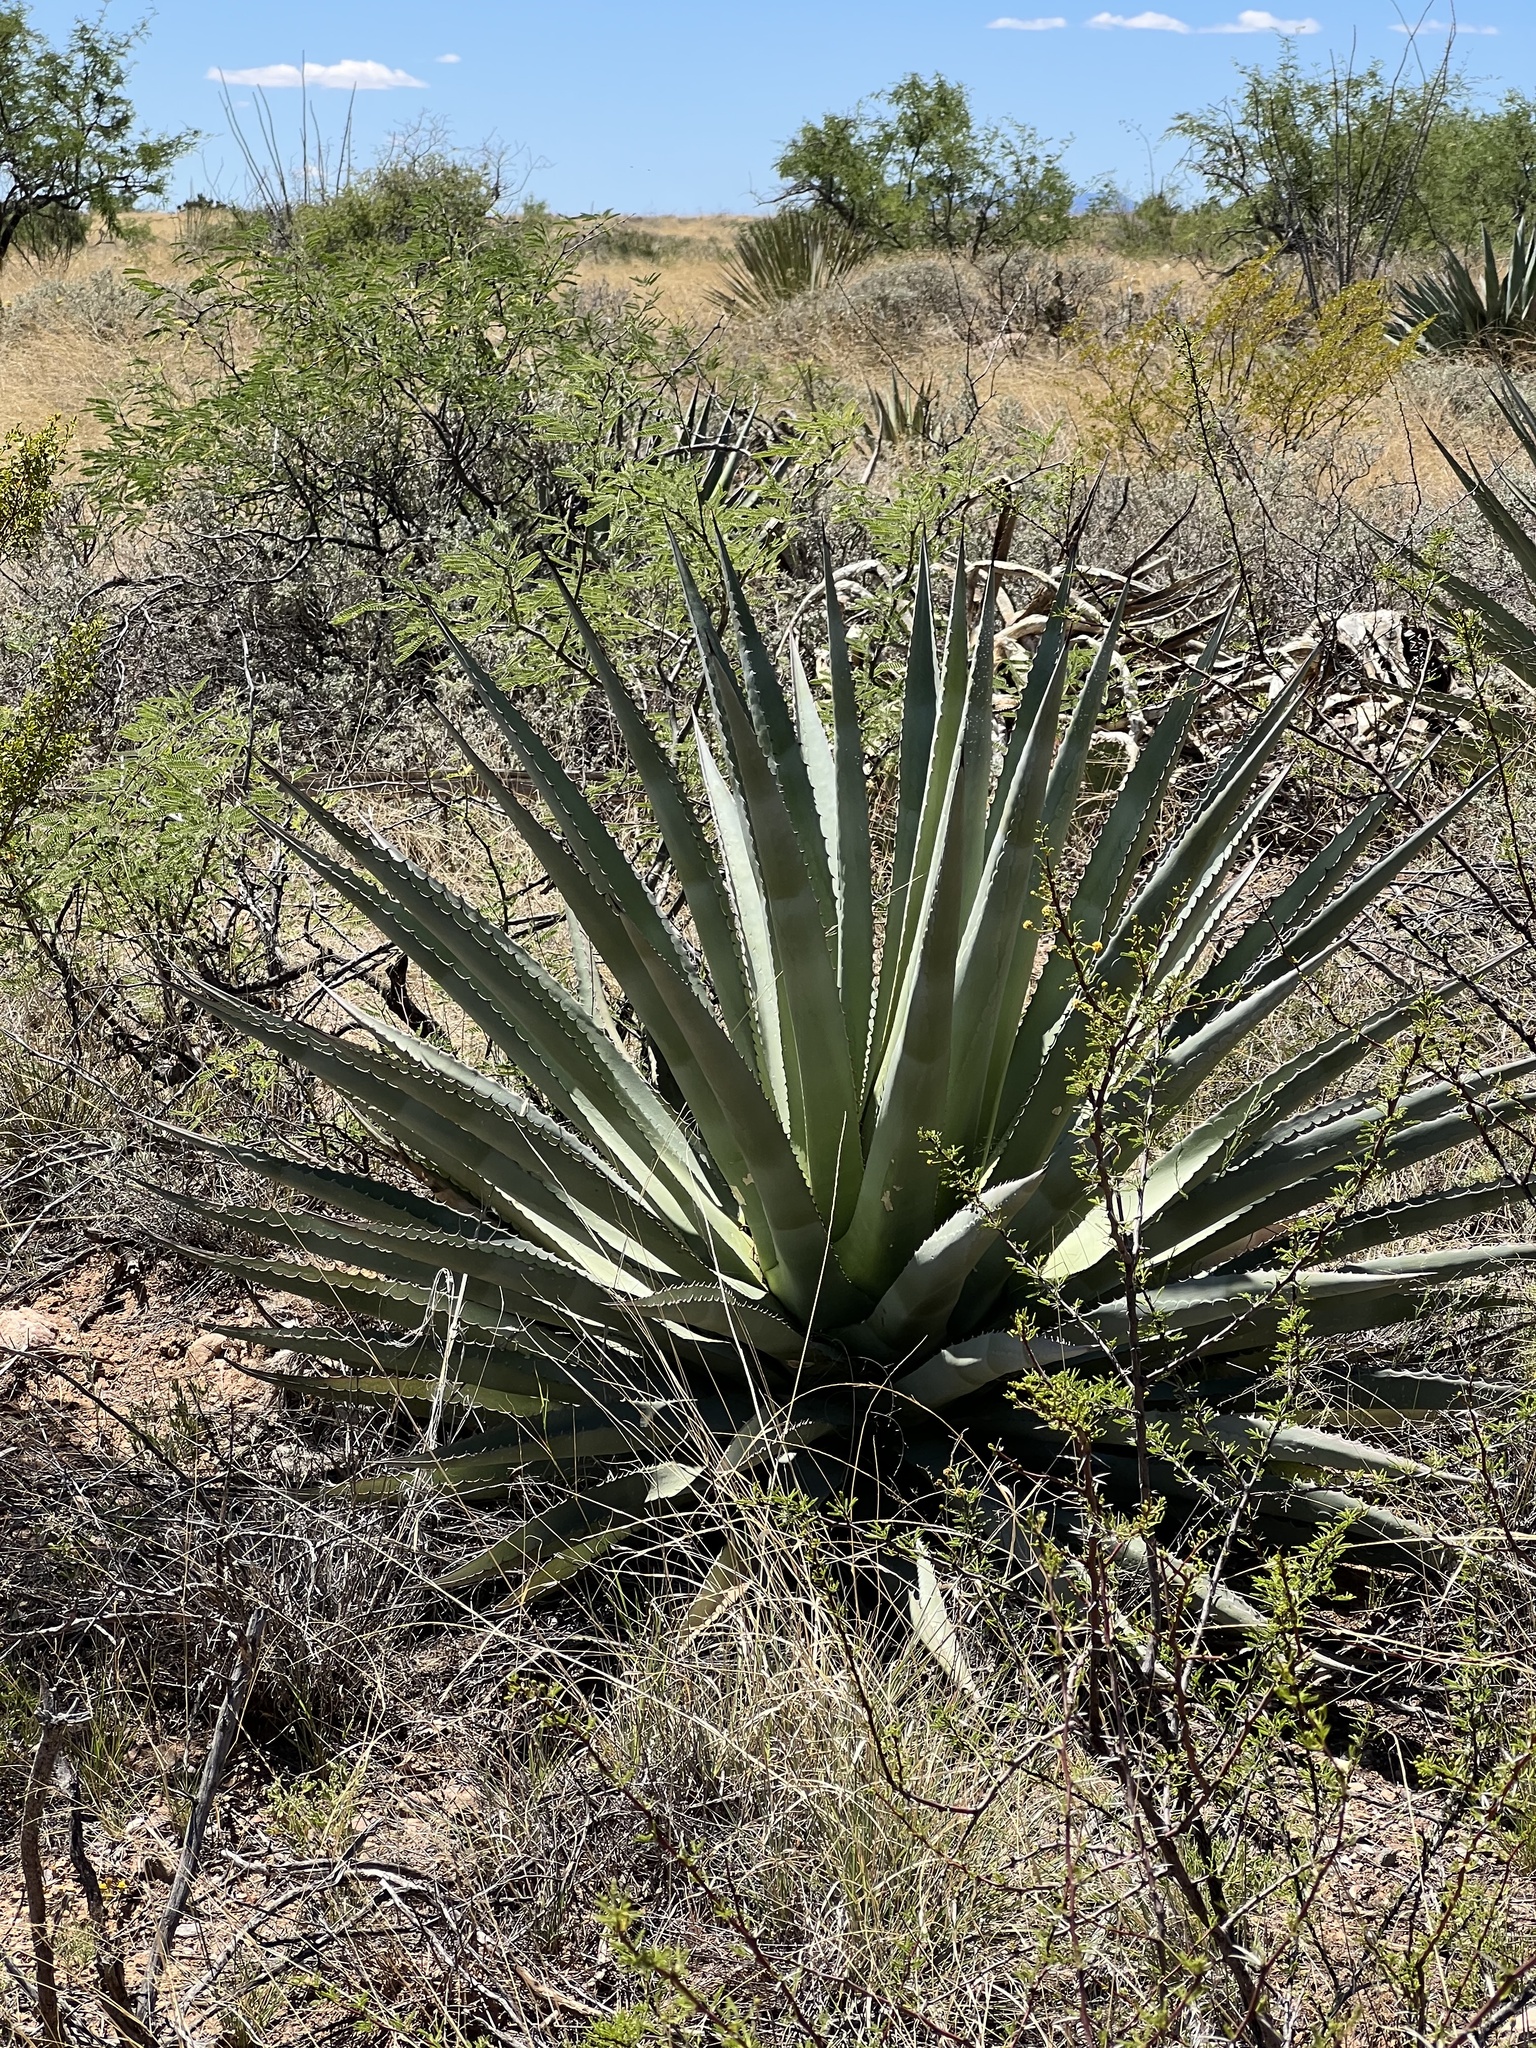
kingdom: Plantae
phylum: Tracheophyta
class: Liliopsida
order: Asparagales
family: Asparagaceae
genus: Agave
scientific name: Agave palmeri
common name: Palmer agave
